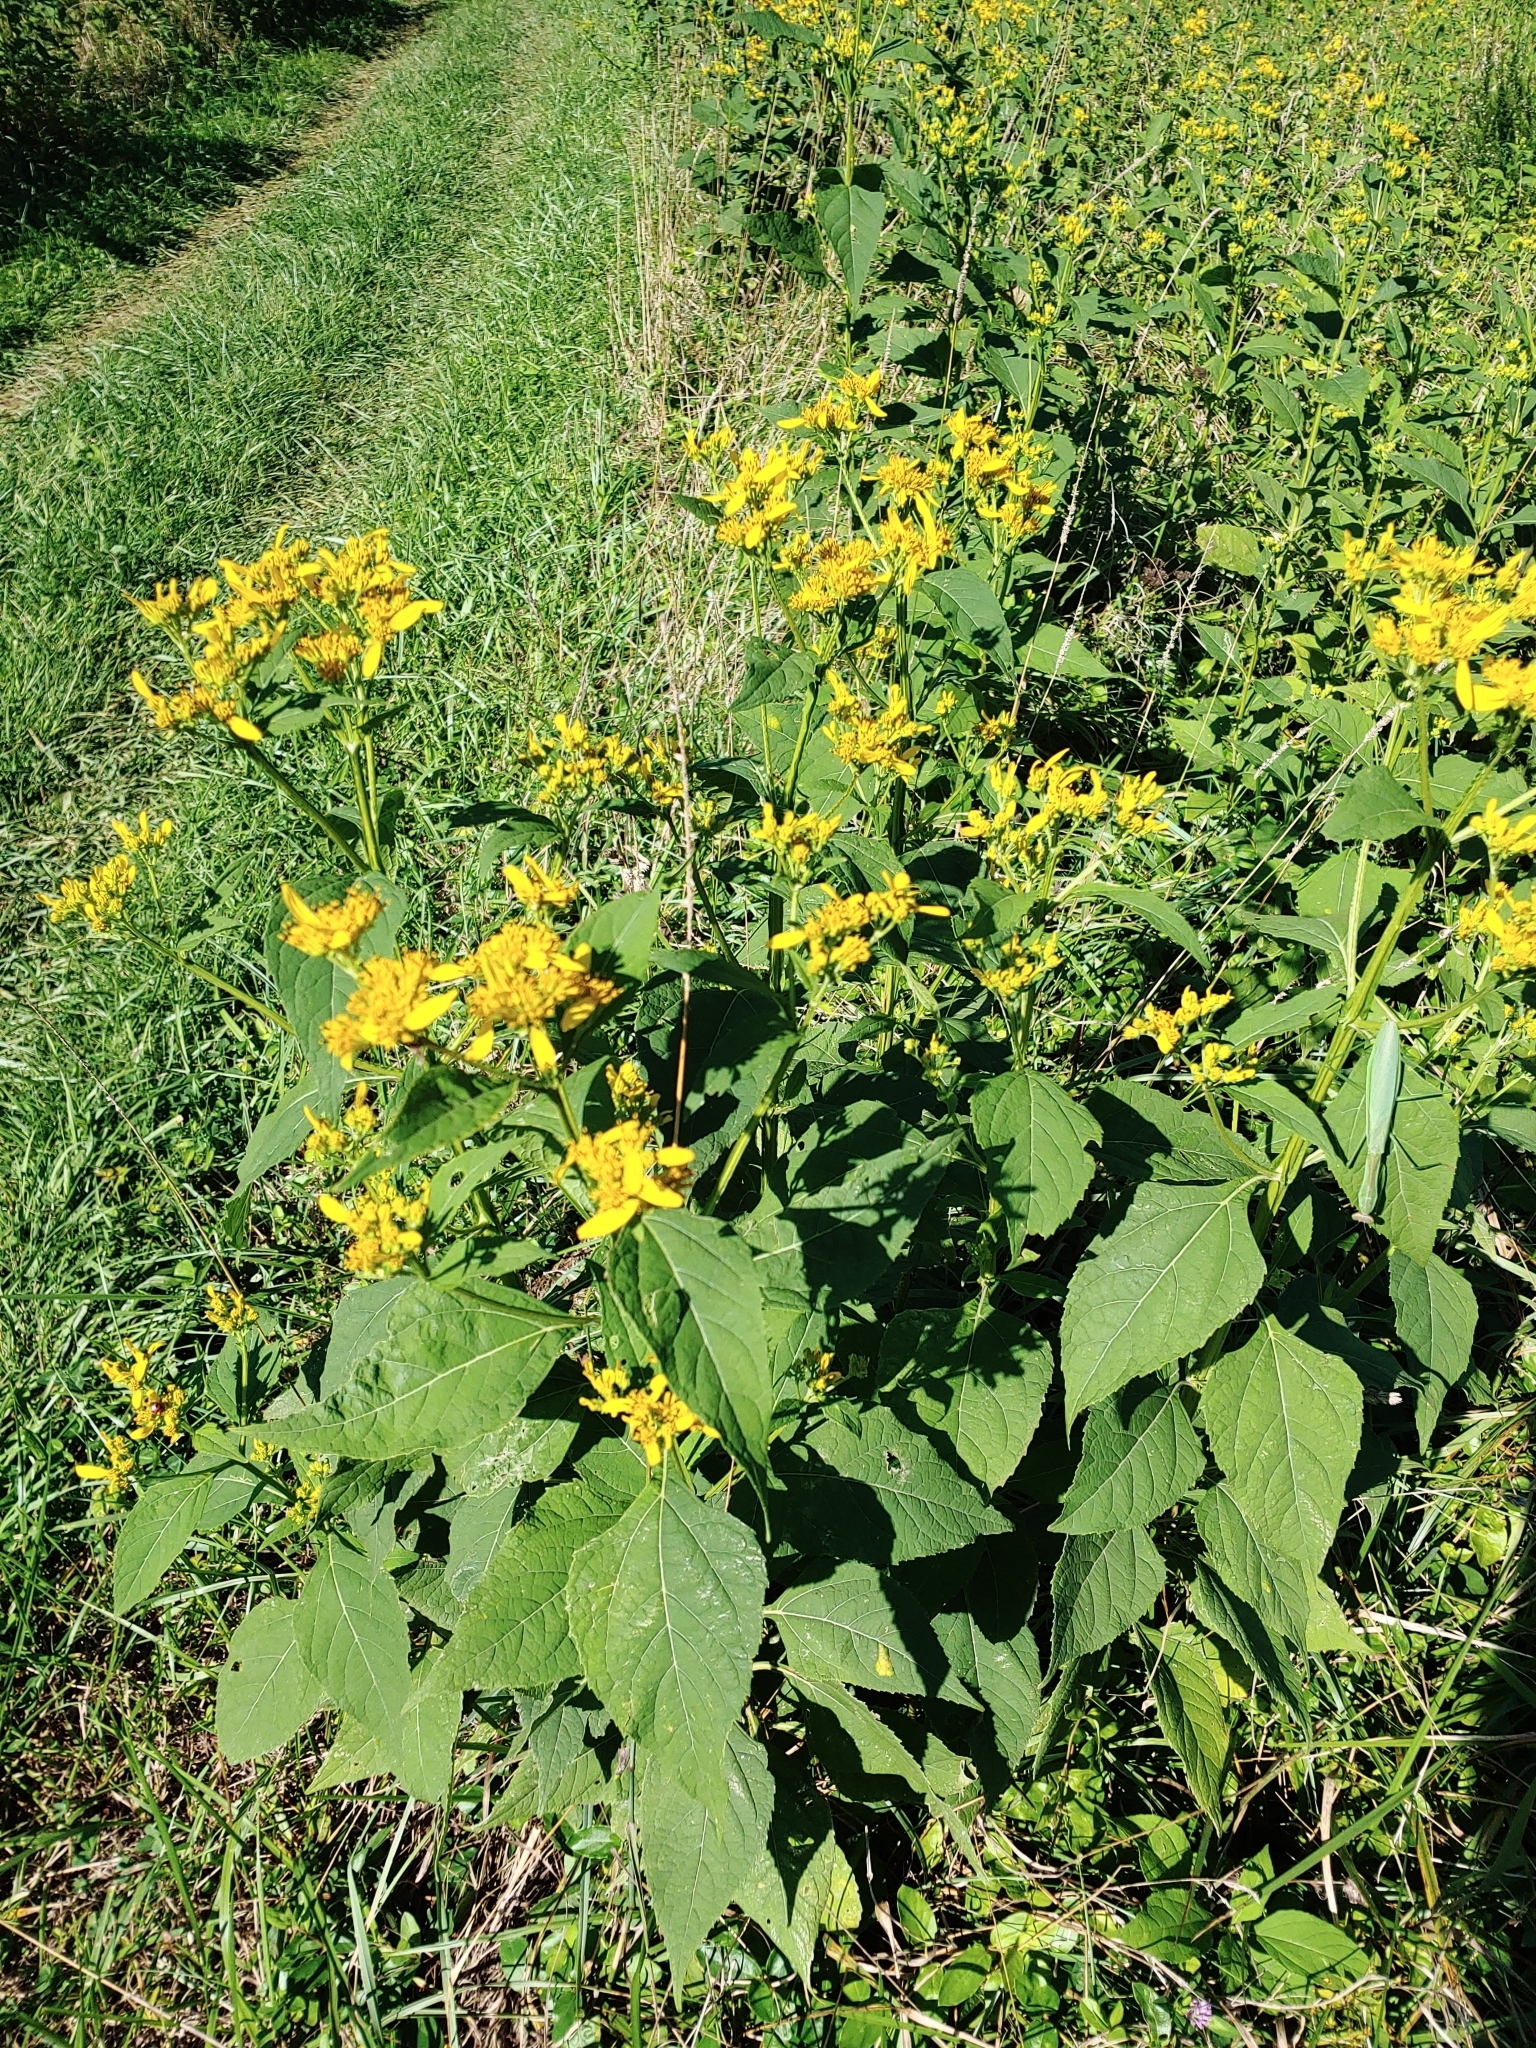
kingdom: Plantae
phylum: Tracheophyta
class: Magnoliopsida
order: Asterales
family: Asteraceae
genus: Verbesina
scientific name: Verbesina occidentalis
